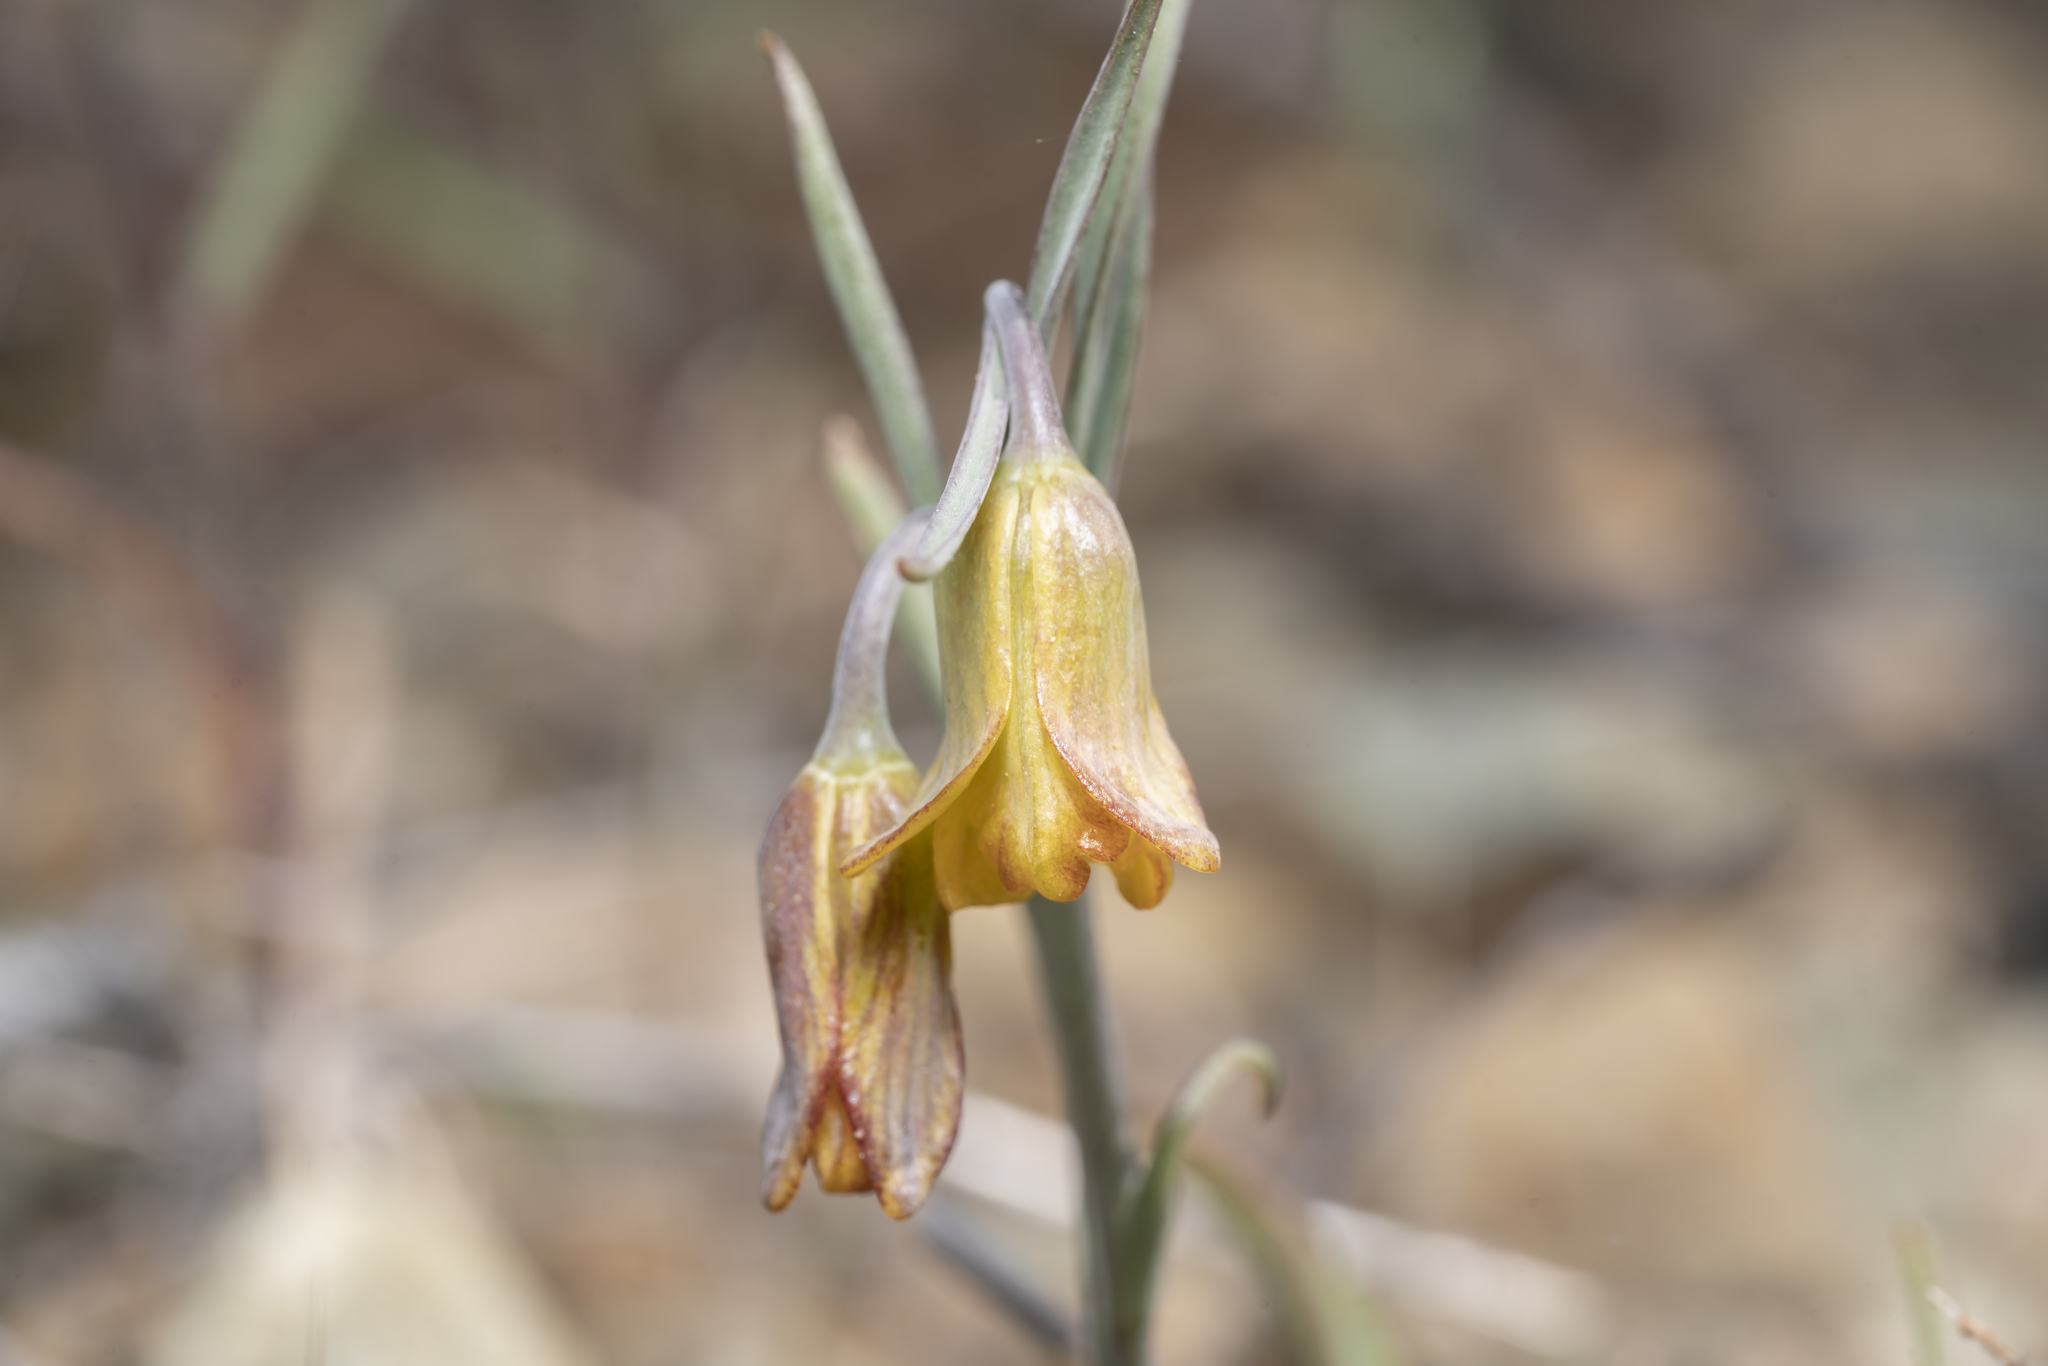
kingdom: Plantae
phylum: Tracheophyta
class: Liliopsida
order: Liliales
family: Liliaceae
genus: Fritillaria
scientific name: Fritillaria rhodia
